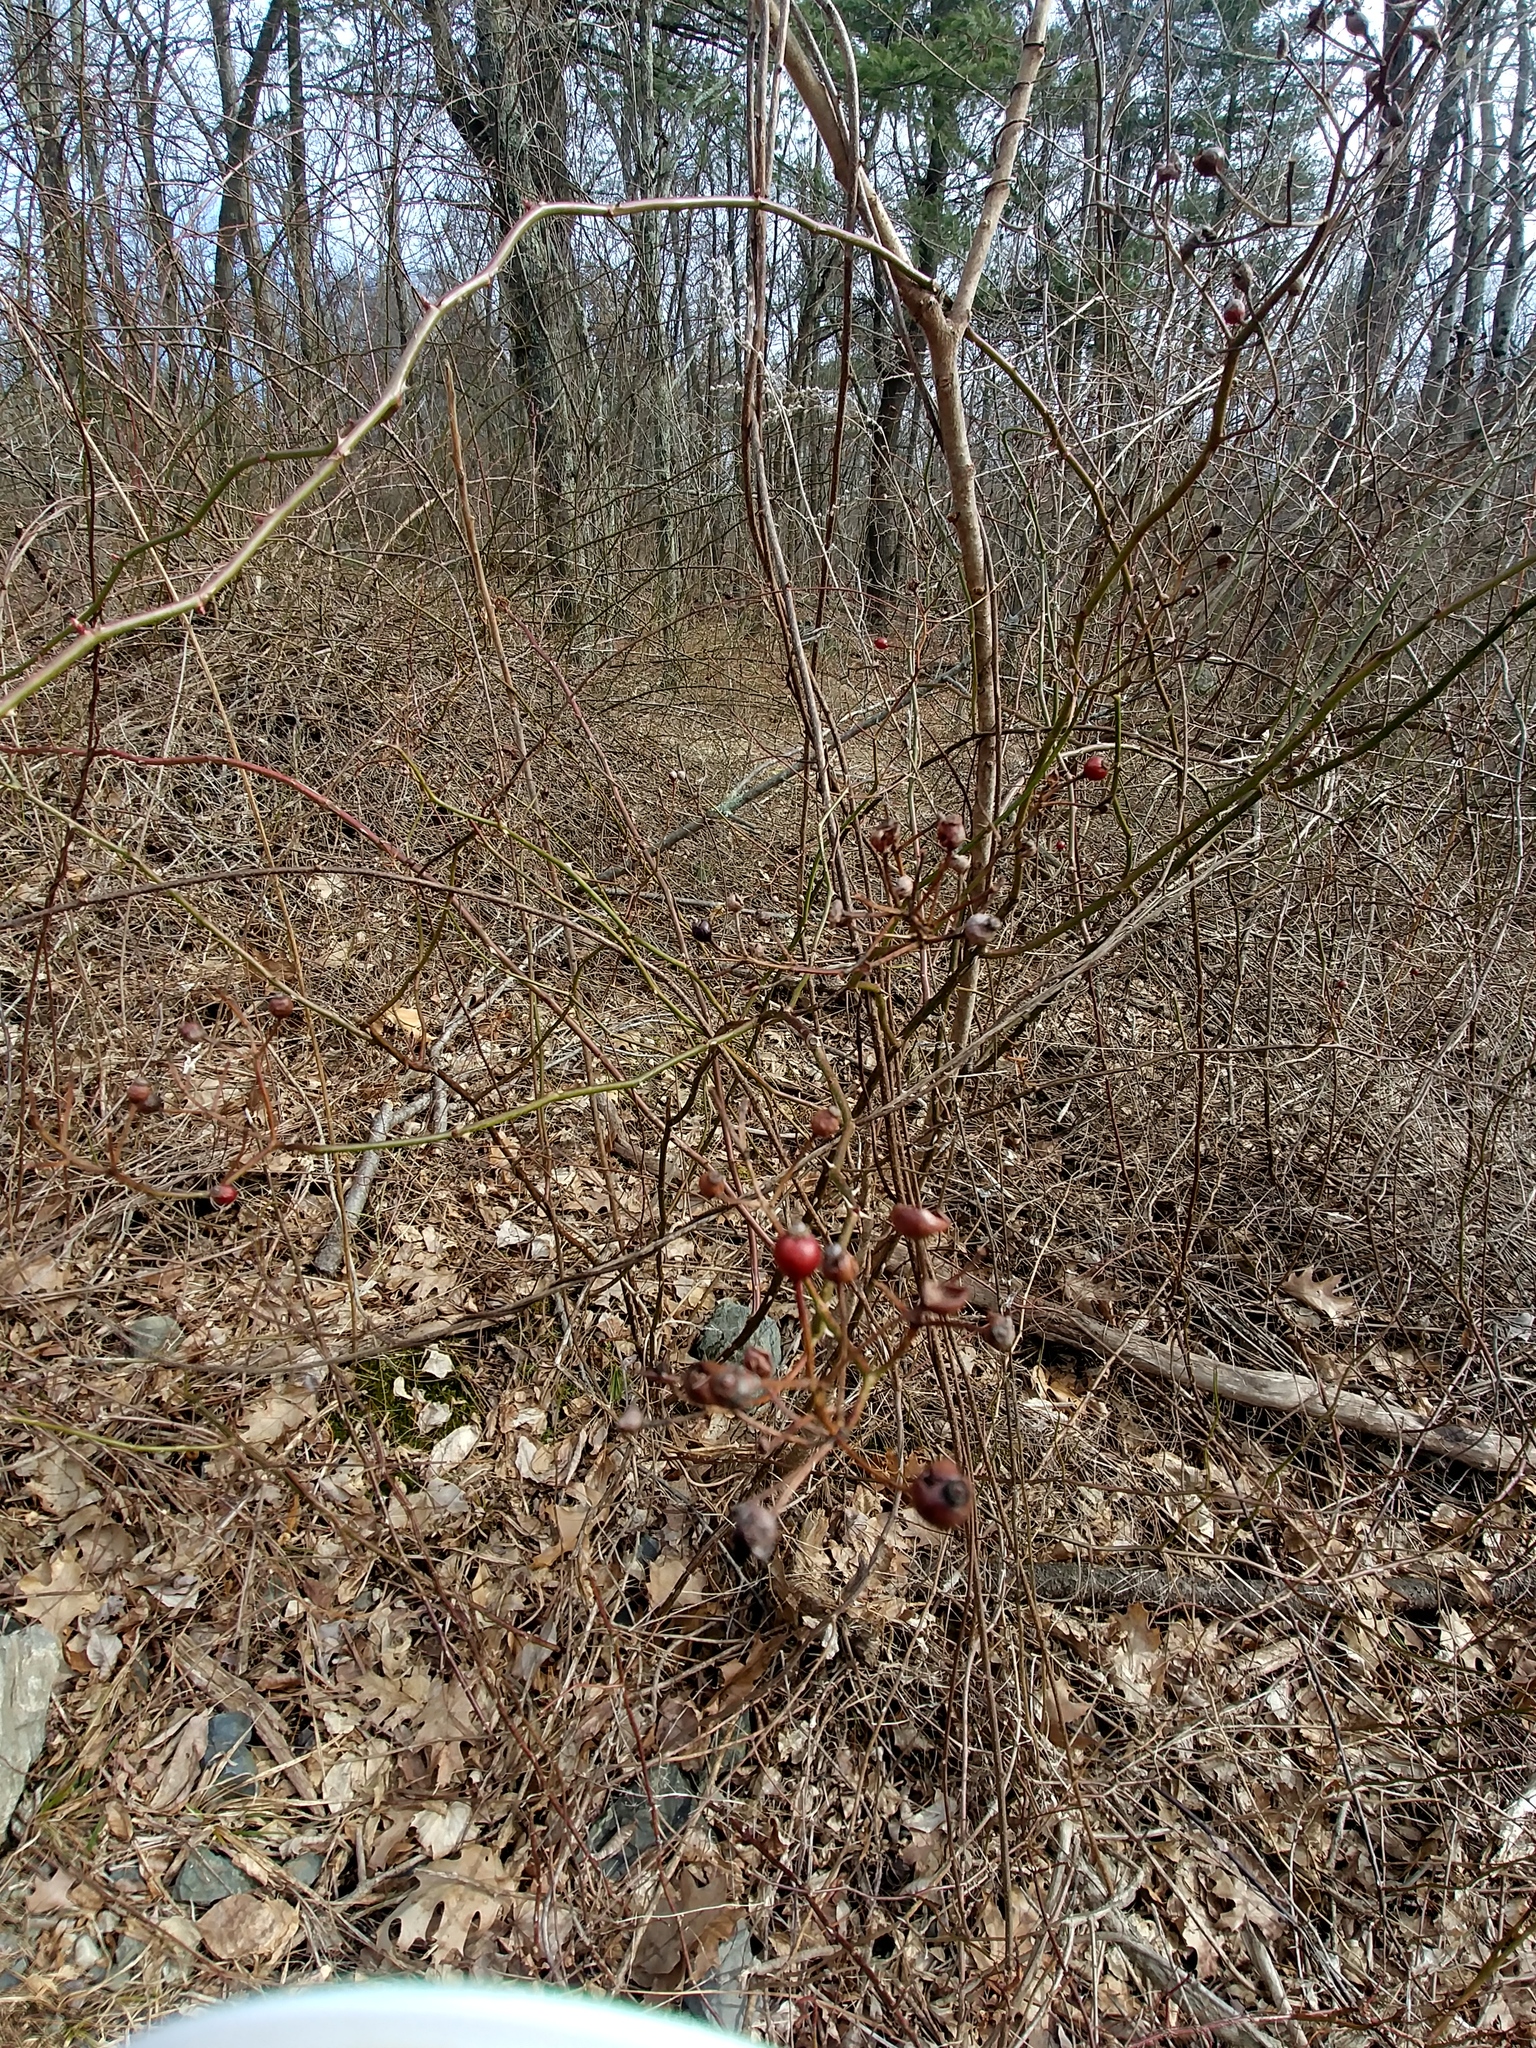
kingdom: Plantae
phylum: Tracheophyta
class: Magnoliopsida
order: Rosales
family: Rosaceae
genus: Rosa
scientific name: Rosa multiflora
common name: Multiflora rose
